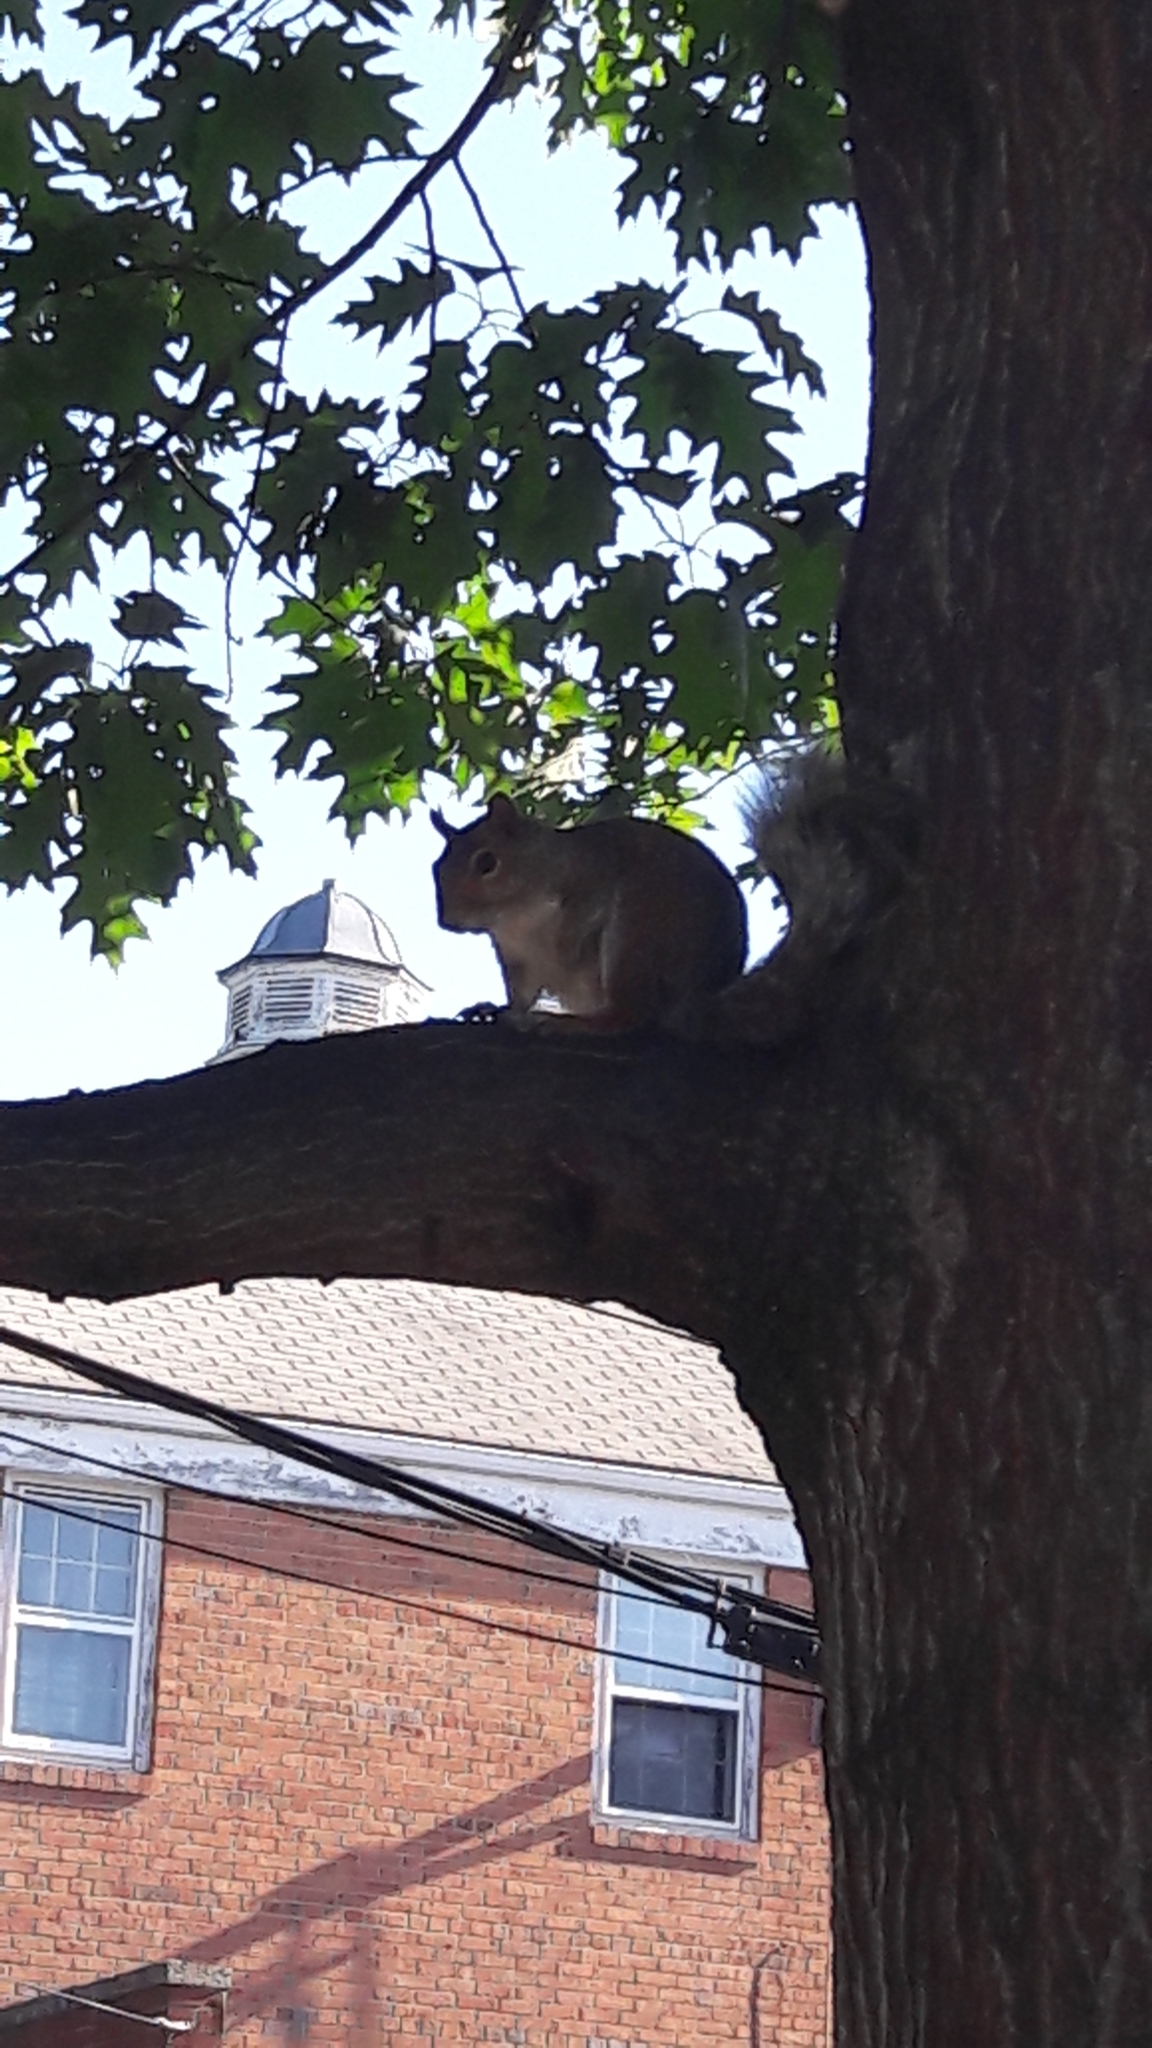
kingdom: Animalia
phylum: Chordata
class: Mammalia
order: Rodentia
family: Sciuridae
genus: Sciurus
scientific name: Sciurus carolinensis
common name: Eastern gray squirrel
